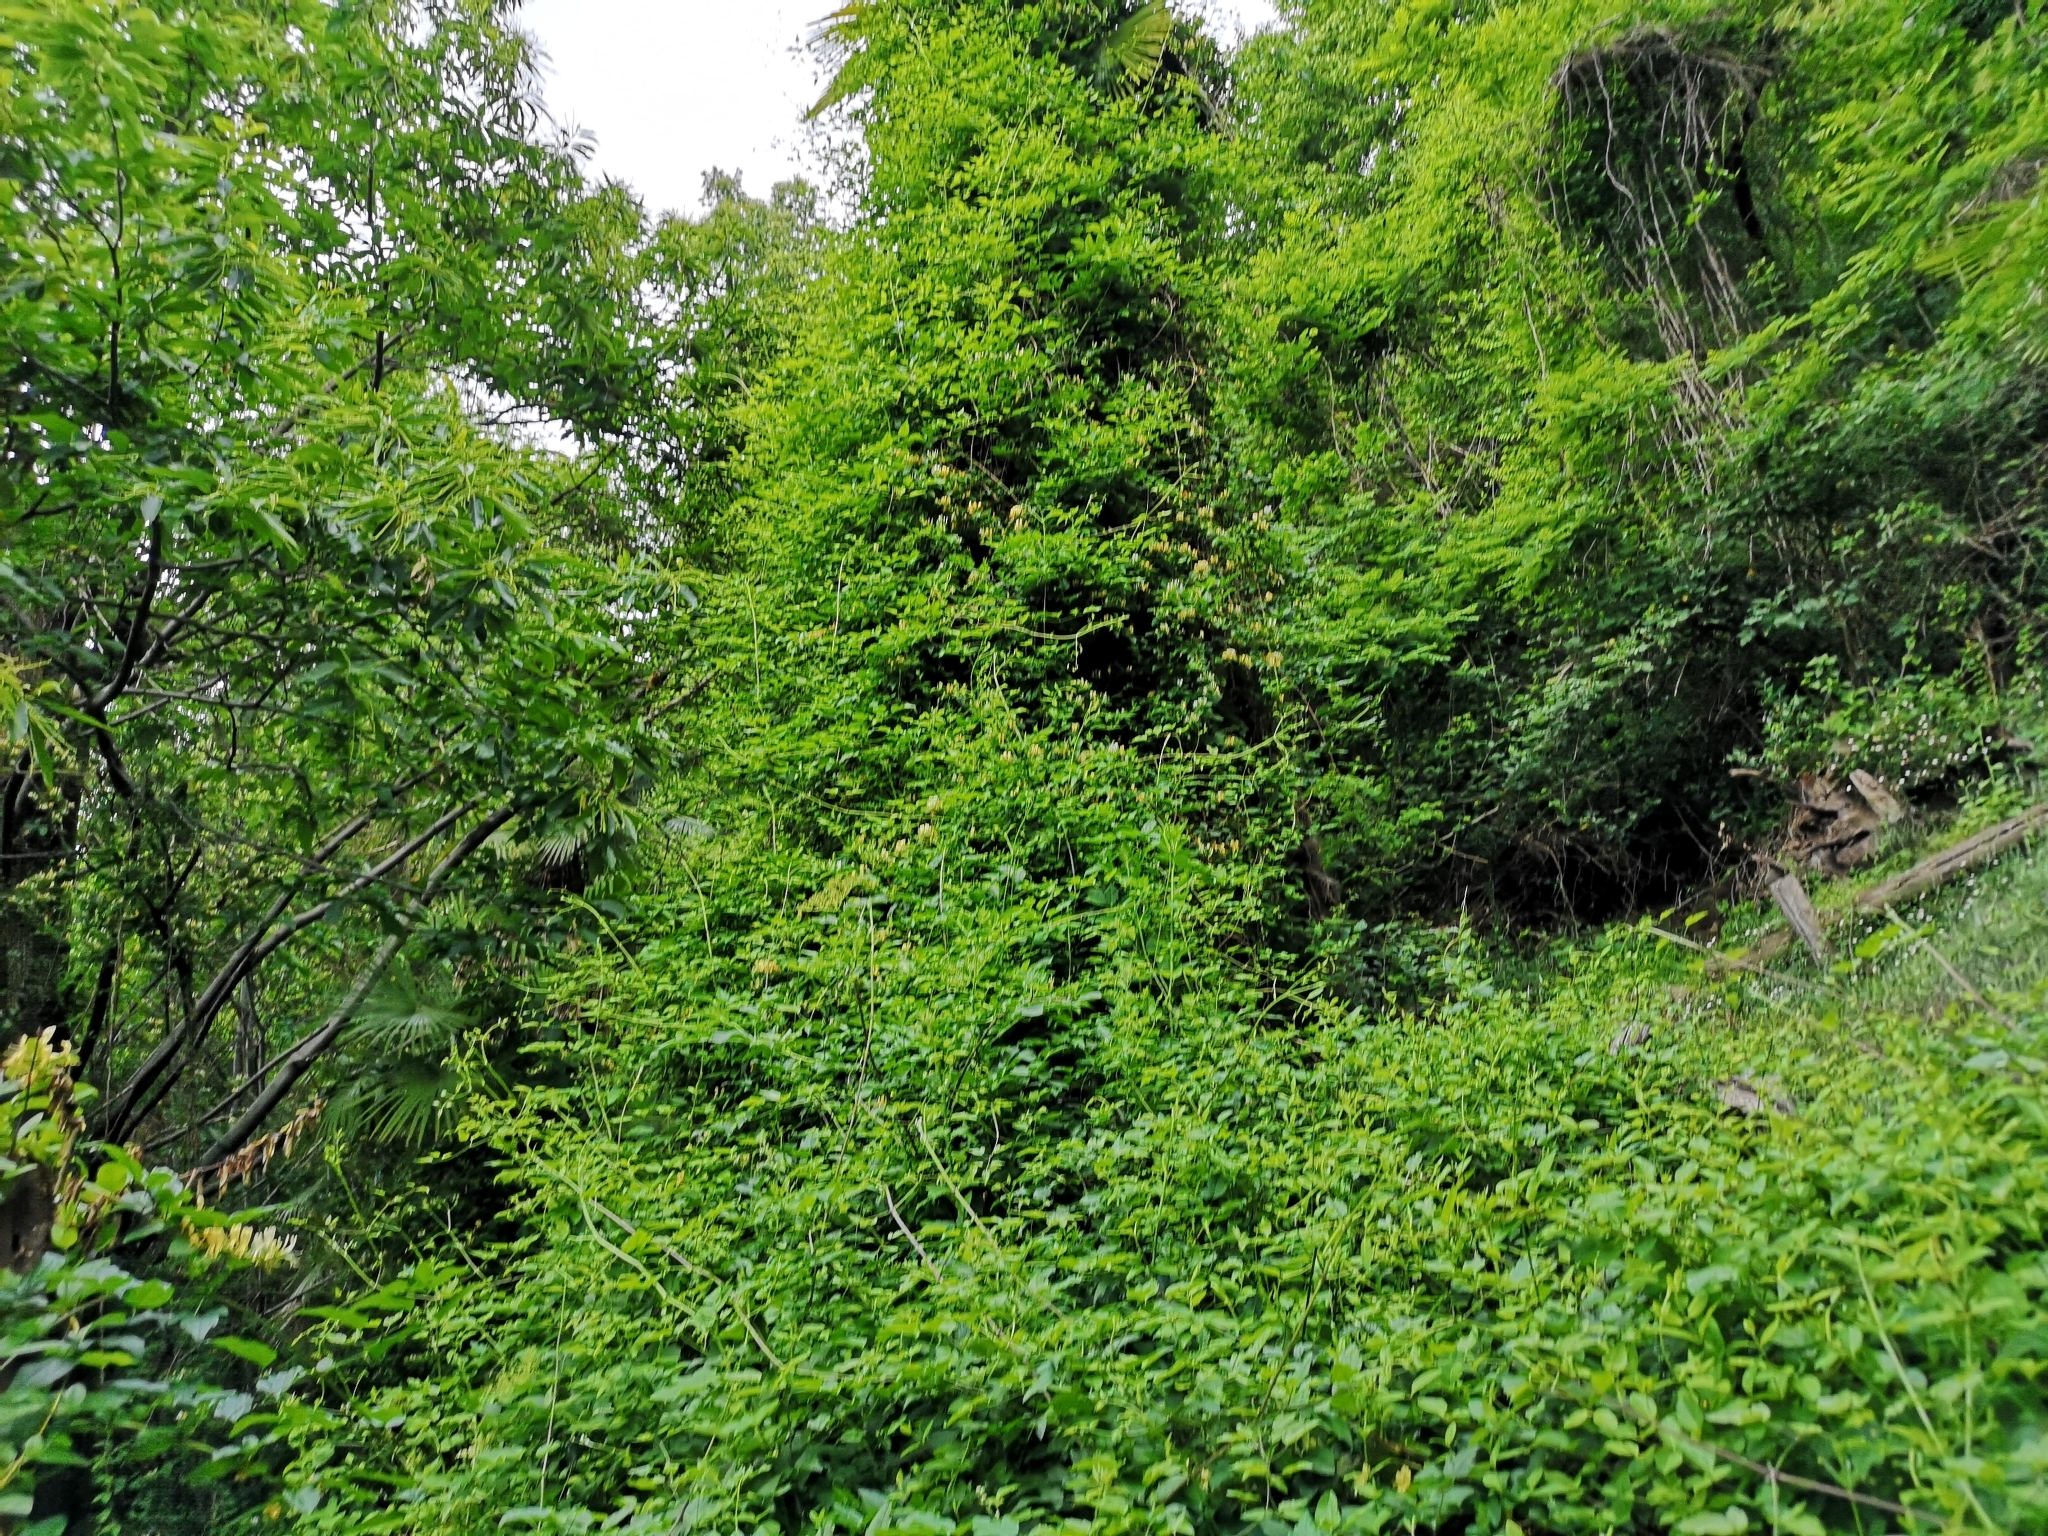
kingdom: Plantae
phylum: Tracheophyta
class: Magnoliopsida
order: Dipsacales
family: Caprifoliaceae
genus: Lonicera
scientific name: Lonicera japonica
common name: Japanese honeysuckle
